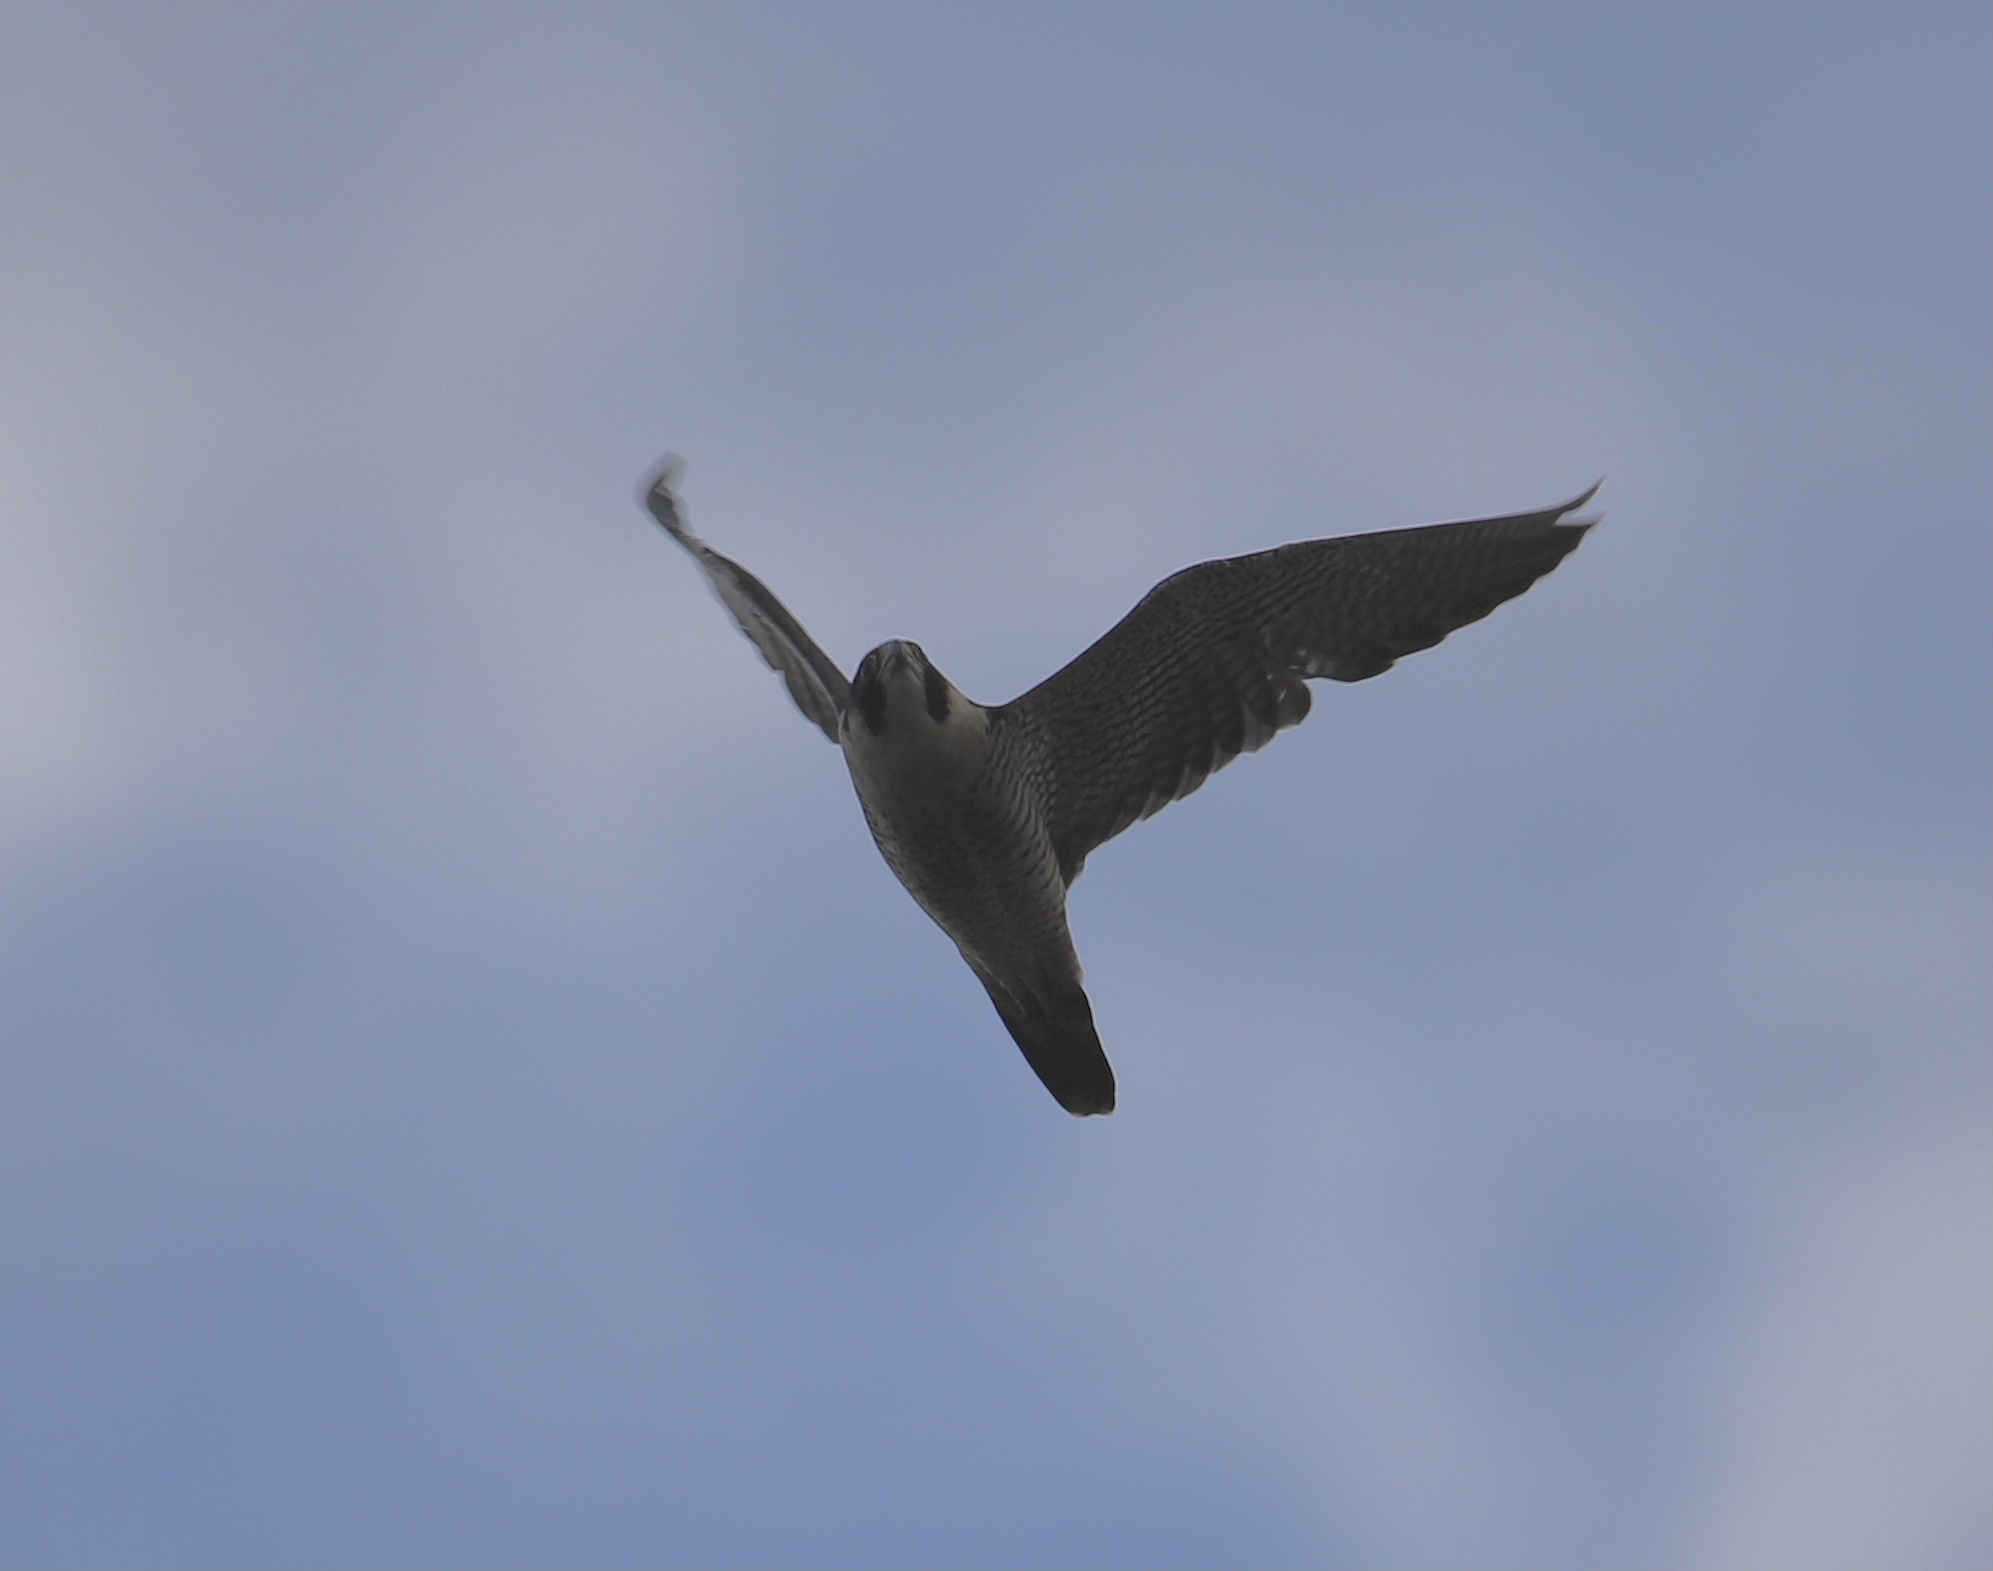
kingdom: Animalia
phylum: Chordata
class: Aves
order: Falconiformes
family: Falconidae
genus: Falco
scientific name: Falco peregrinus
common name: Peregrine falcon
